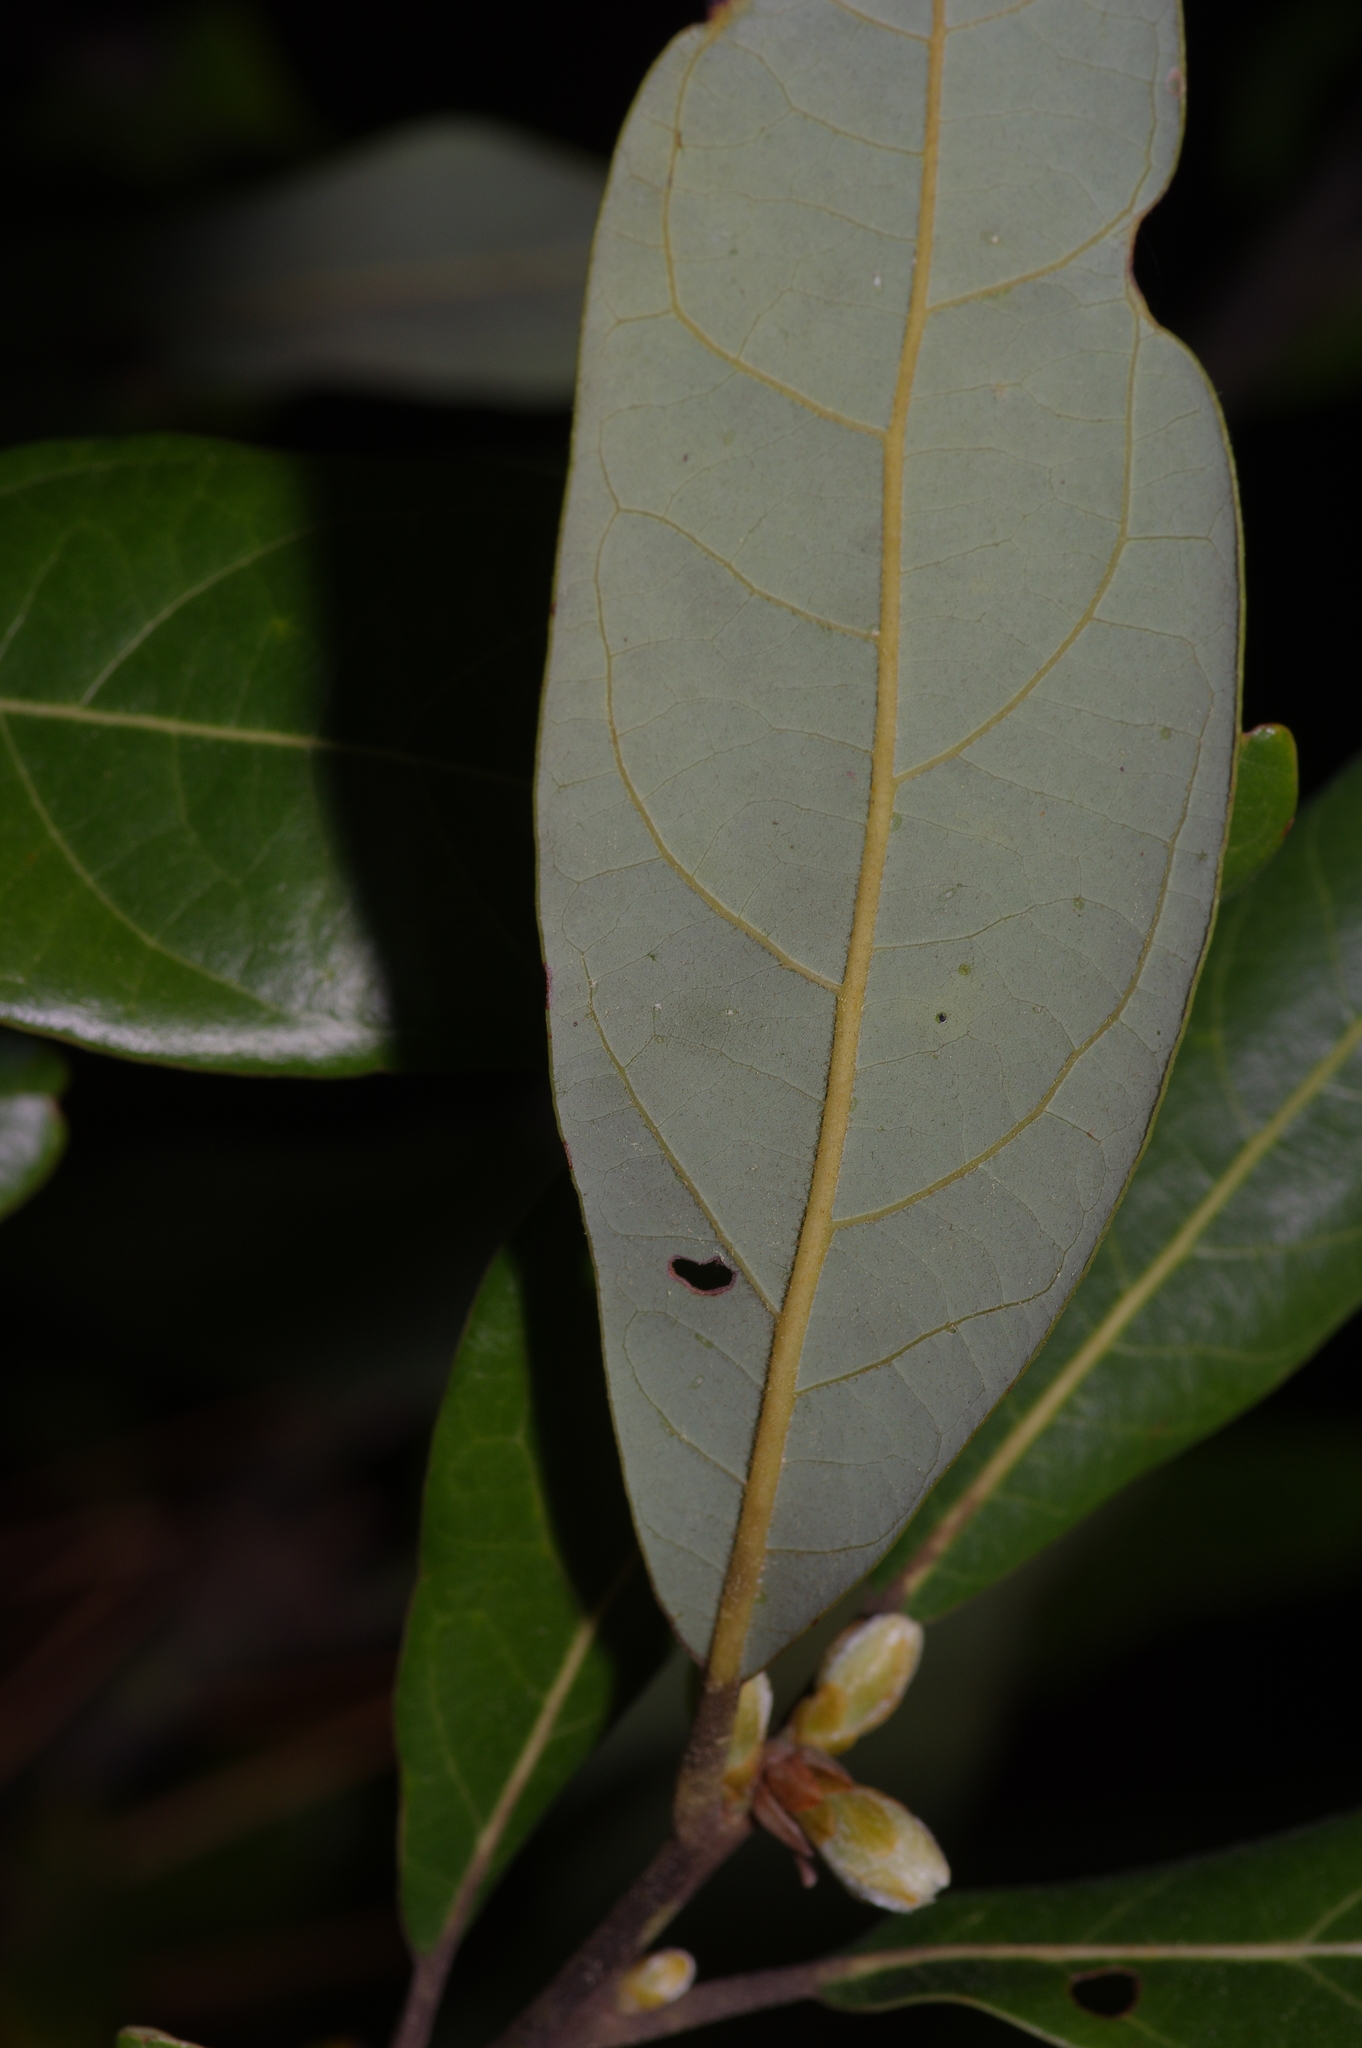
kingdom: Plantae
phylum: Tracheophyta
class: Magnoliopsida
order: Laurales
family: Lauraceae
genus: Persea
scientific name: Persea palustris
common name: Swampbay
